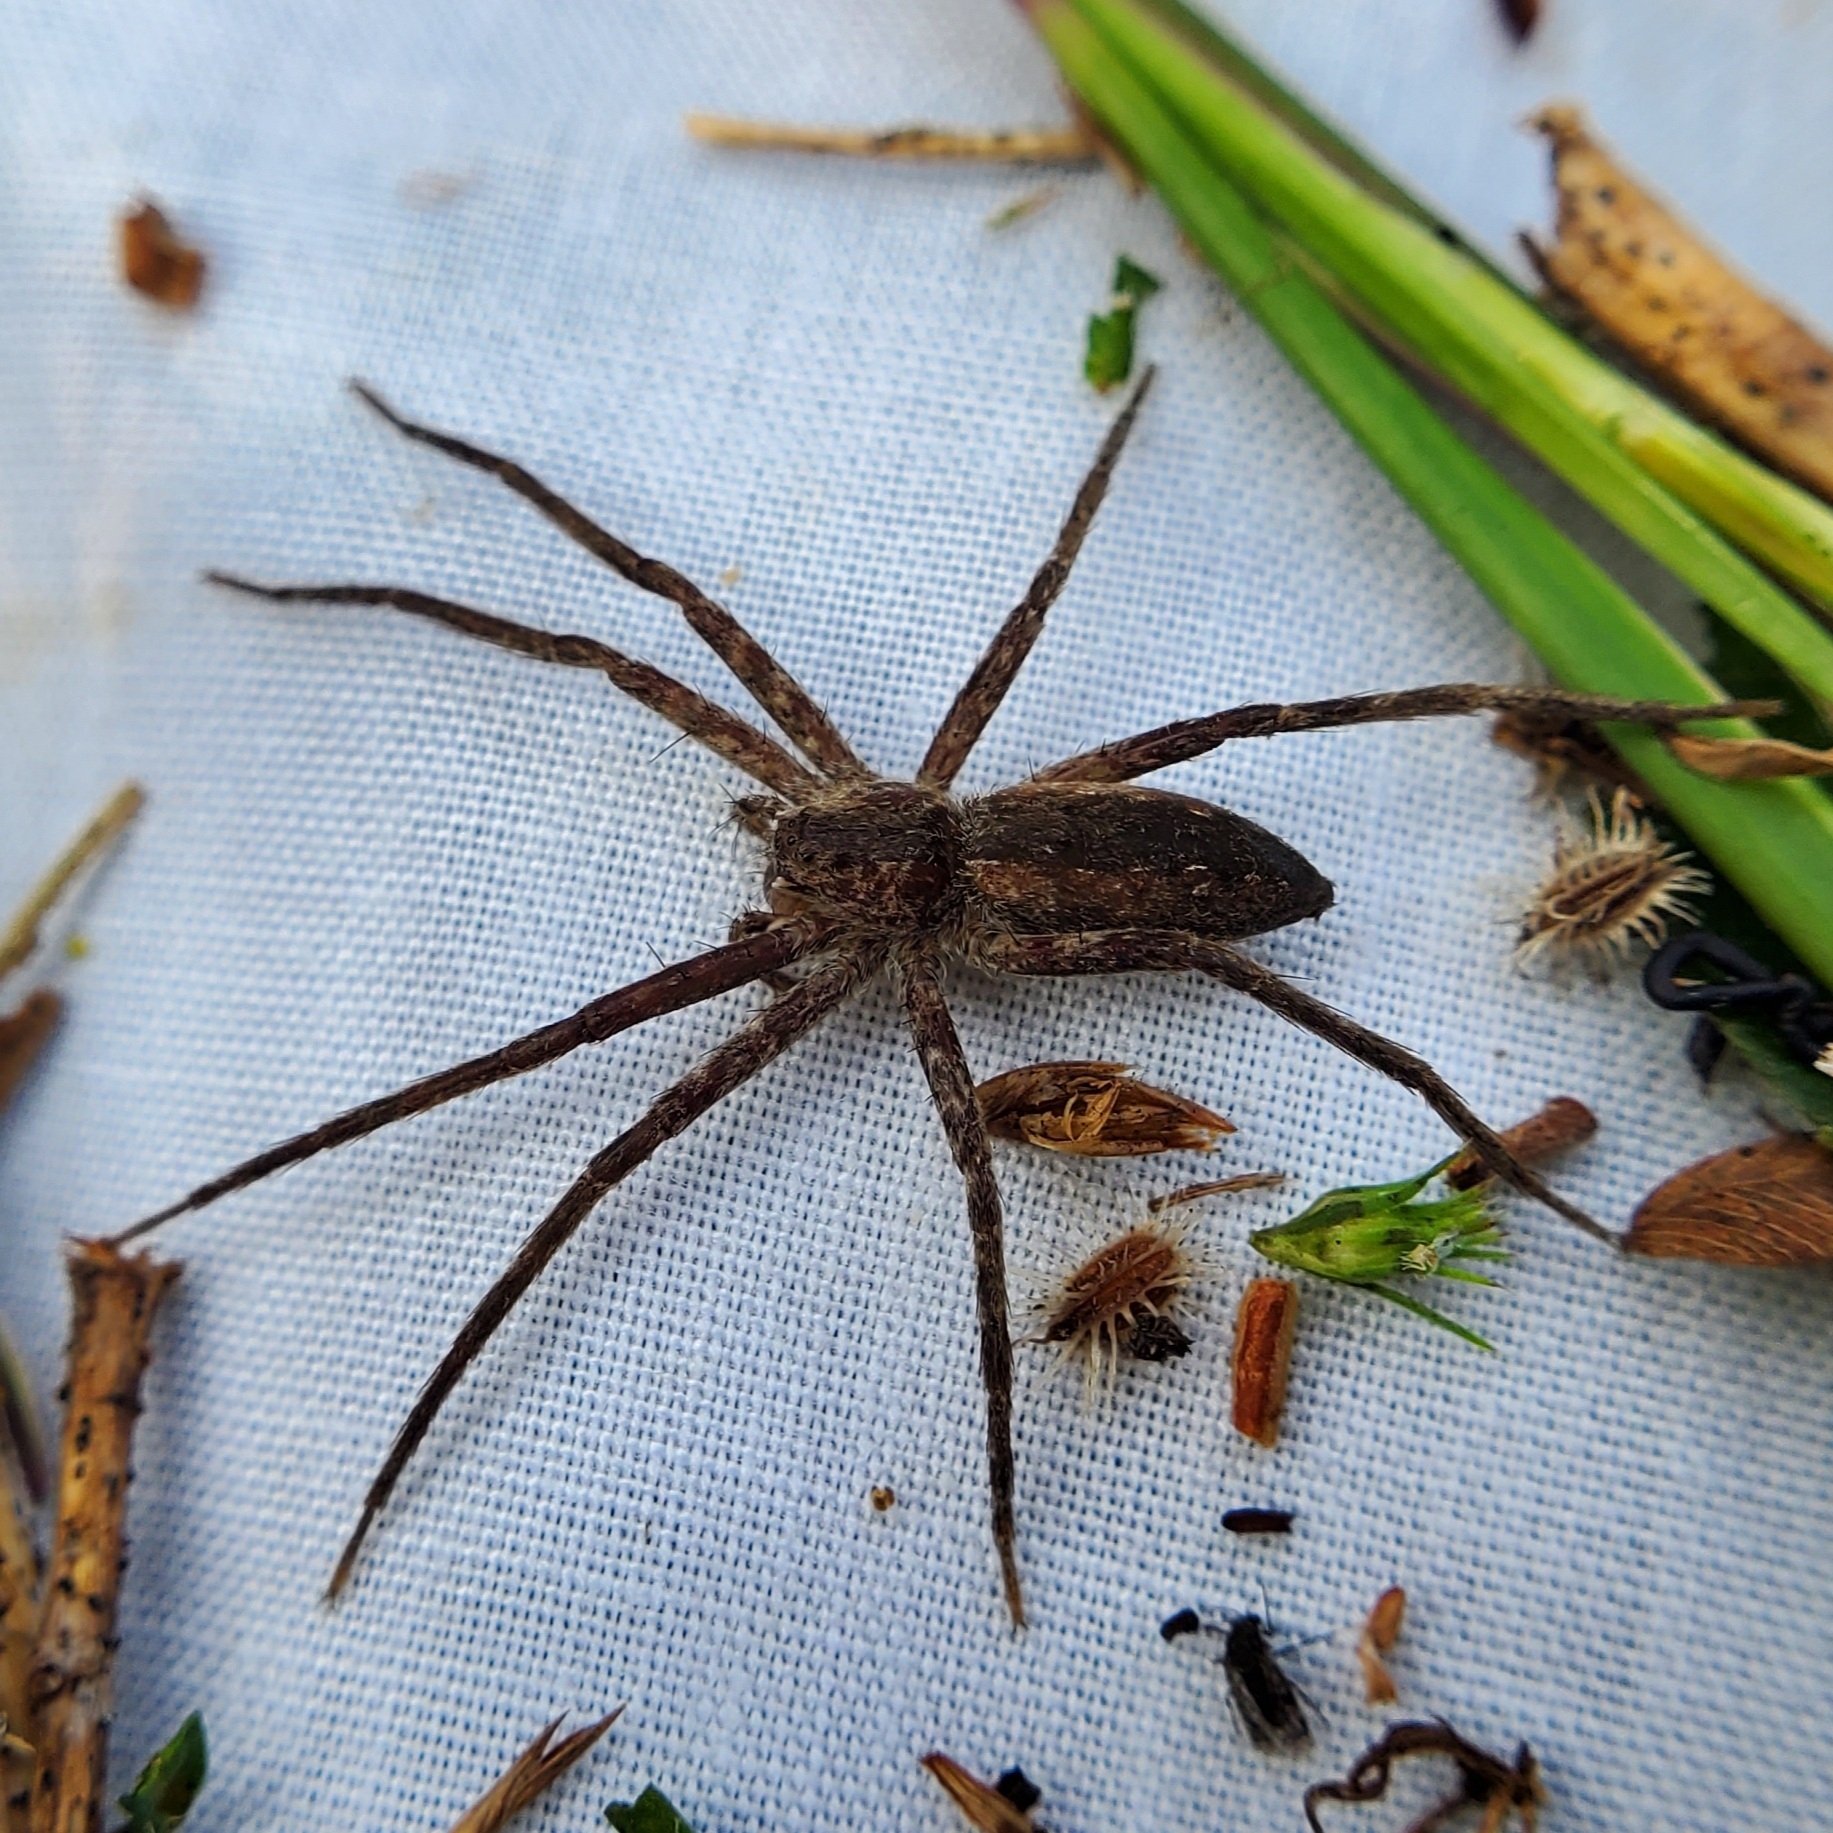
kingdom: Animalia
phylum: Arthropoda
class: Arachnida
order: Araneae
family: Pisauridae
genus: Pisaurina
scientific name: Pisaurina mira
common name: American nursery web spider
